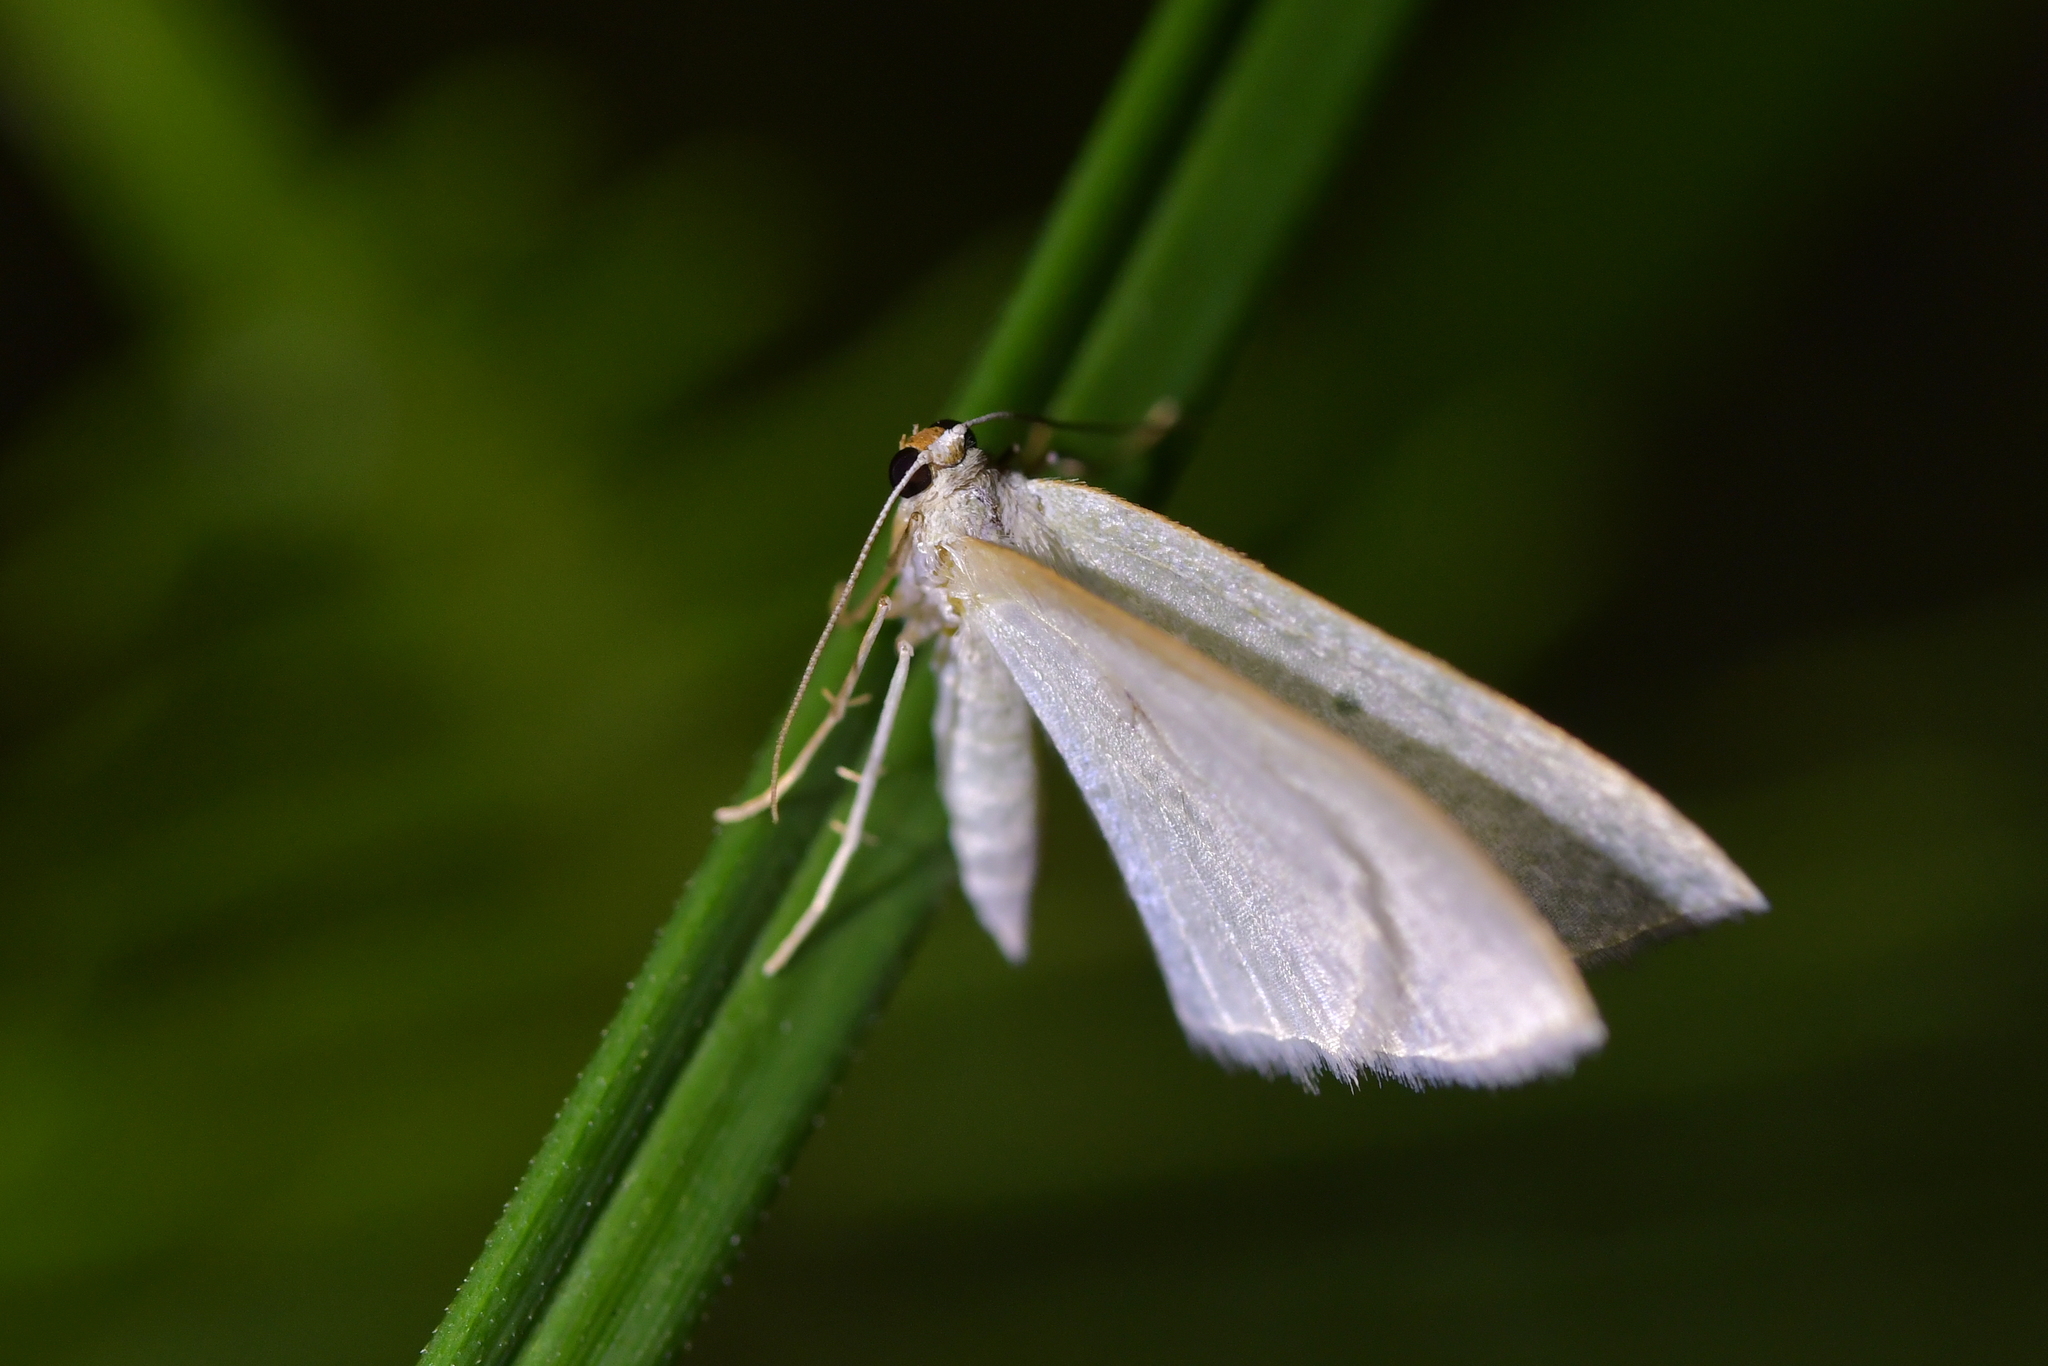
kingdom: Animalia
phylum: Arthropoda
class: Insecta
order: Lepidoptera
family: Geometridae
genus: Poecilasthena
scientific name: Poecilasthena pulchraria
